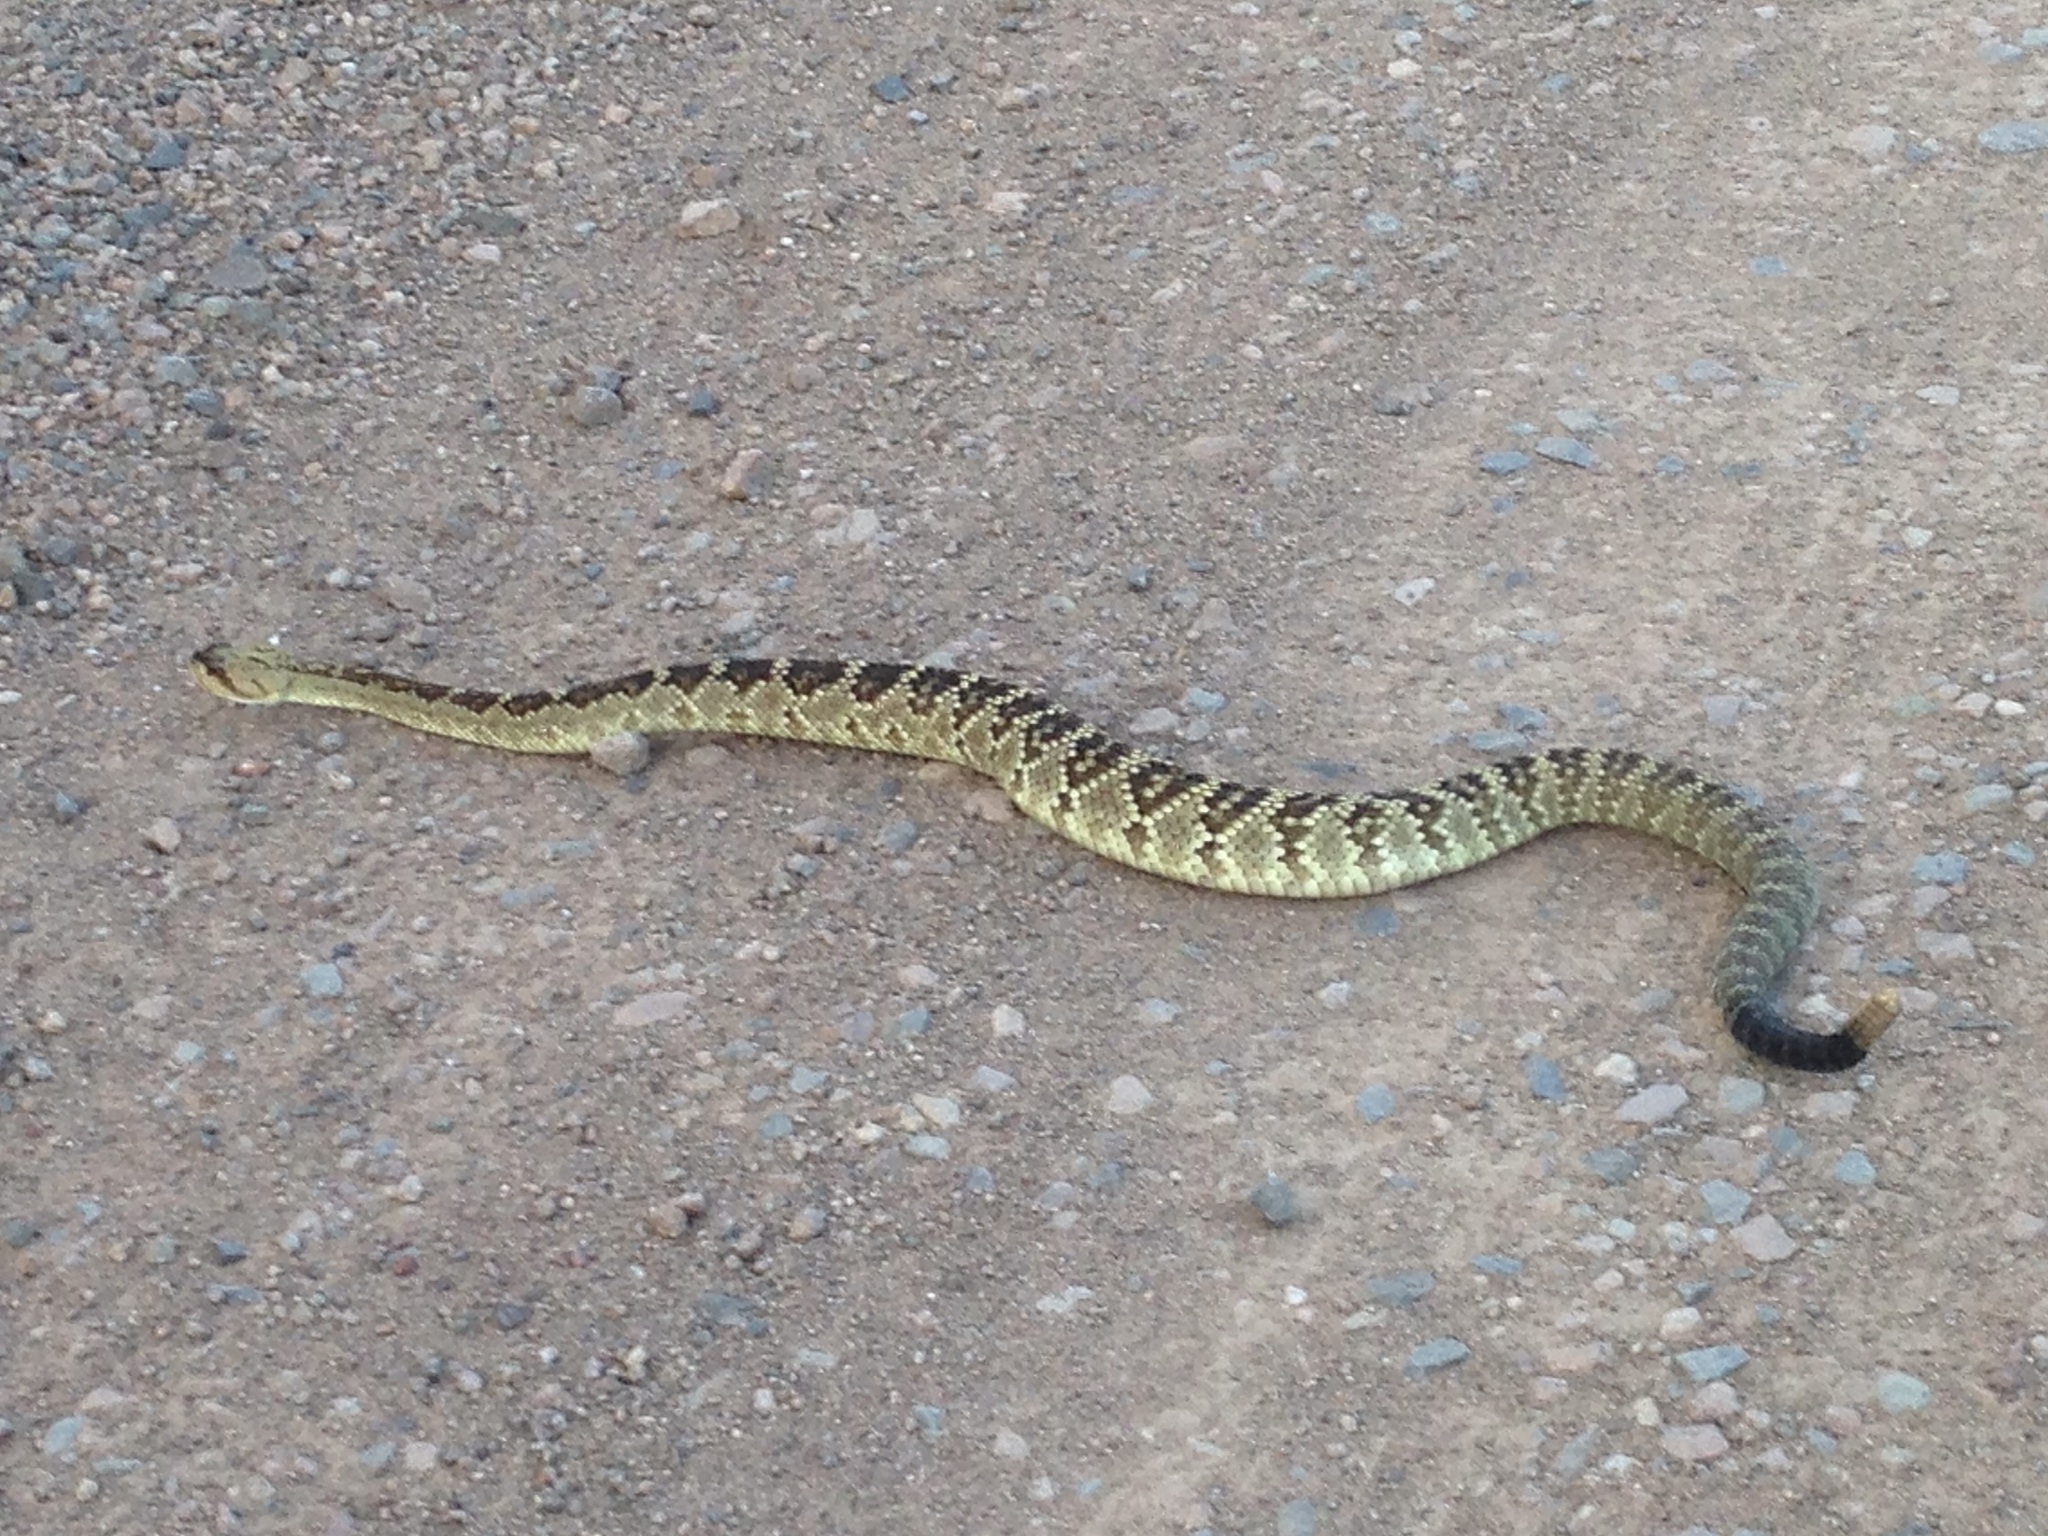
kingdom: Animalia
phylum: Chordata
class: Squamata
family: Viperidae
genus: Crotalus
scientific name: Crotalus molossus
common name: Black tailed rattlesnake
